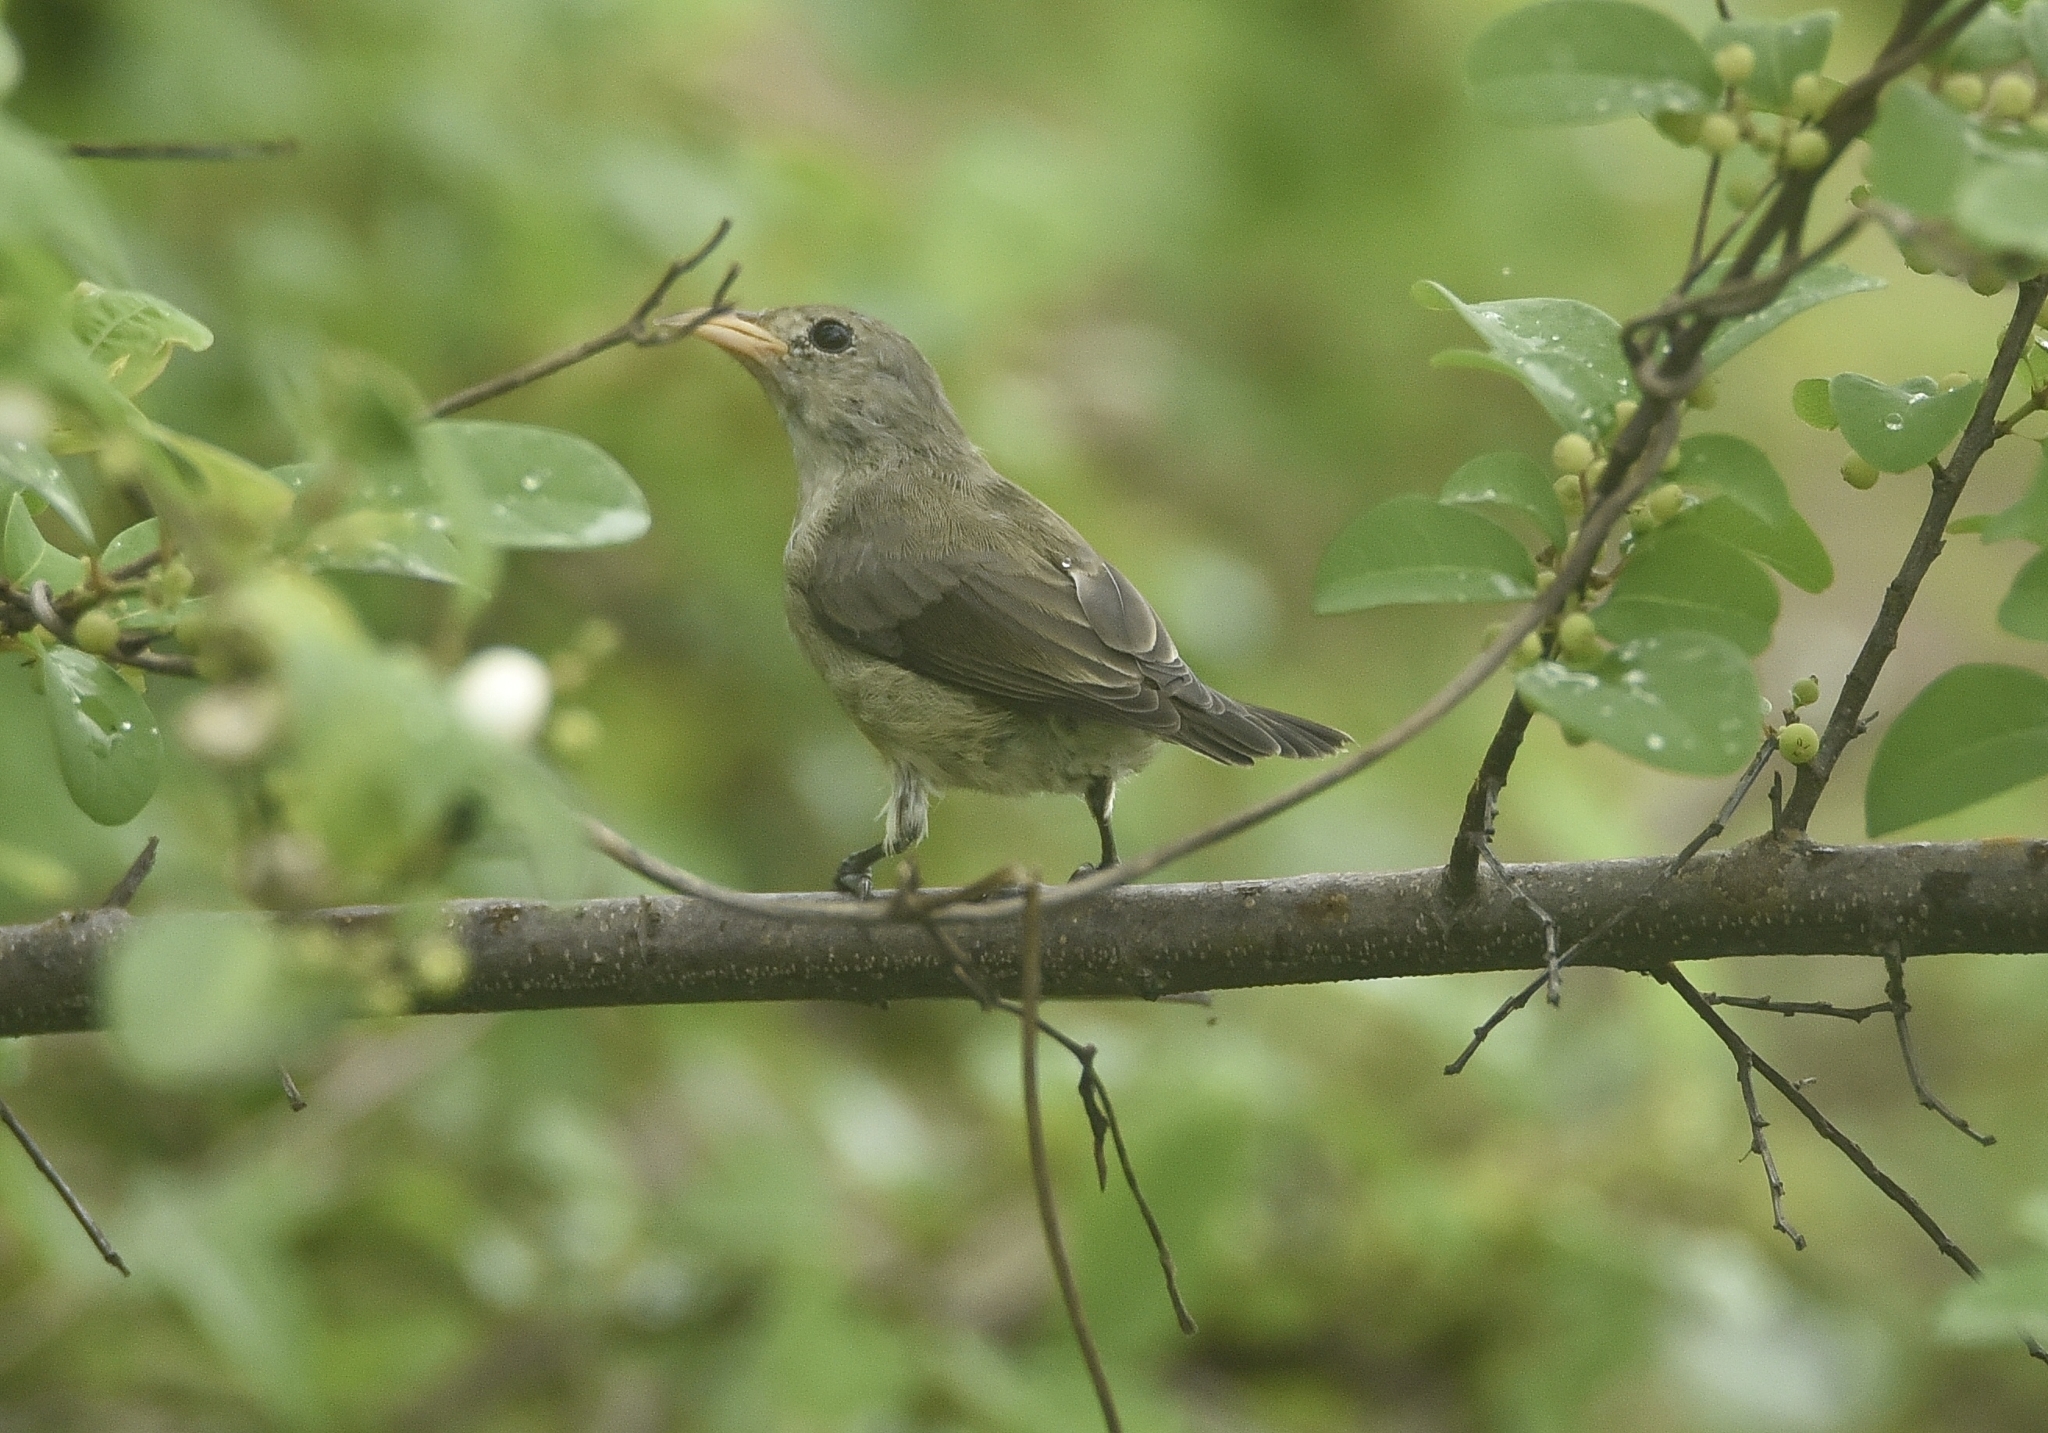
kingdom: Animalia
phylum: Chordata
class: Aves
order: Passeriformes
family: Dicaeidae
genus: Dicaeum
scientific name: Dicaeum erythrorhynchos
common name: Pale-billed flowerpecker
